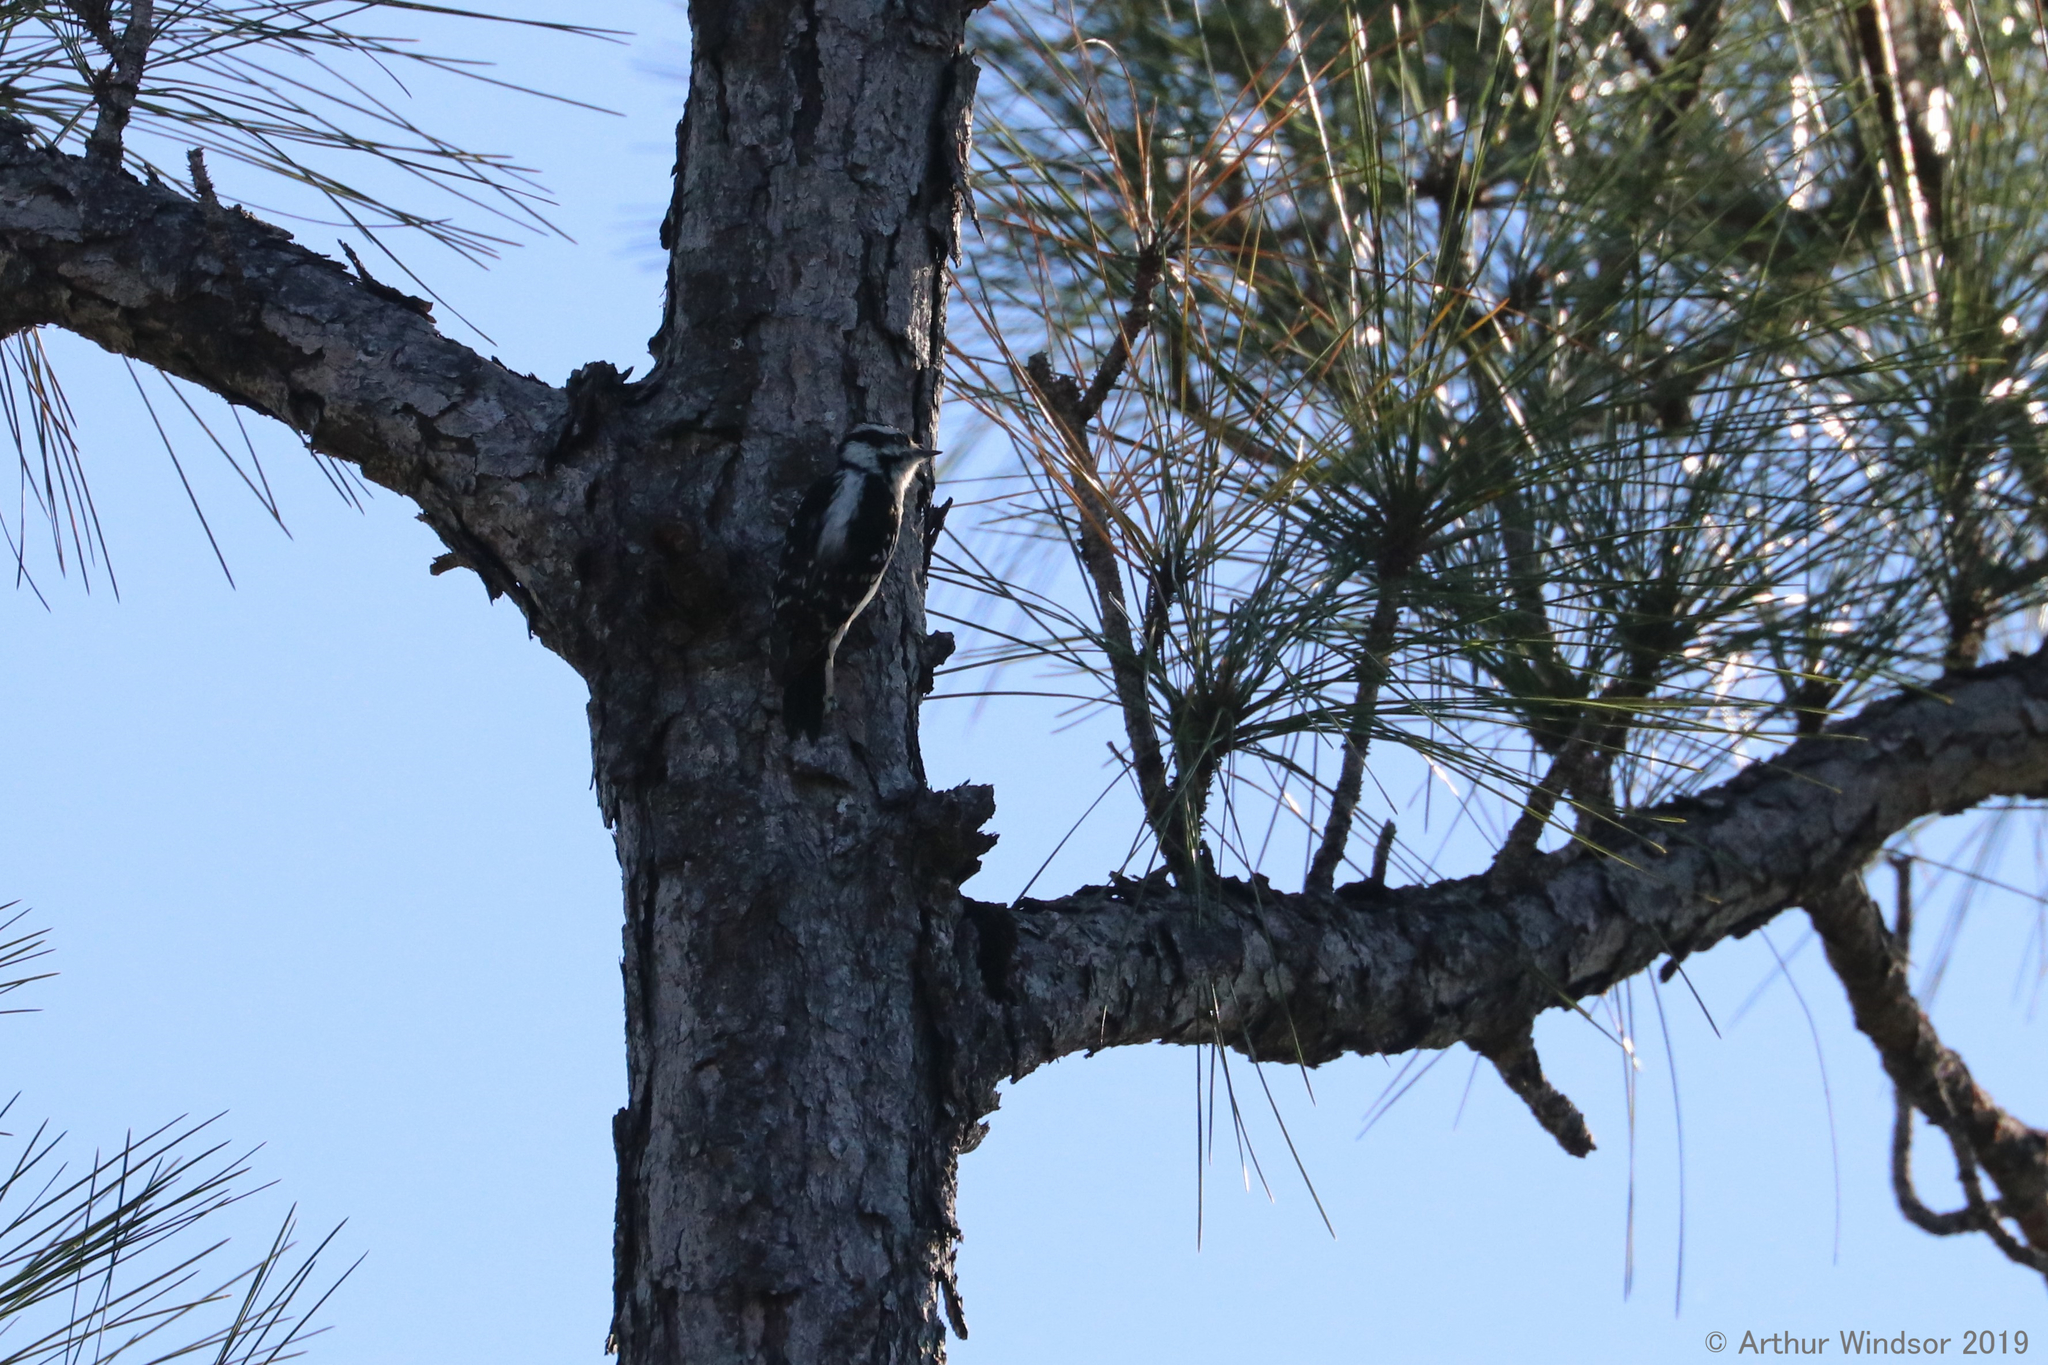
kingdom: Animalia
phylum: Chordata
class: Aves
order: Piciformes
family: Picidae
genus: Dryobates
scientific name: Dryobates pubescens
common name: Downy woodpecker
